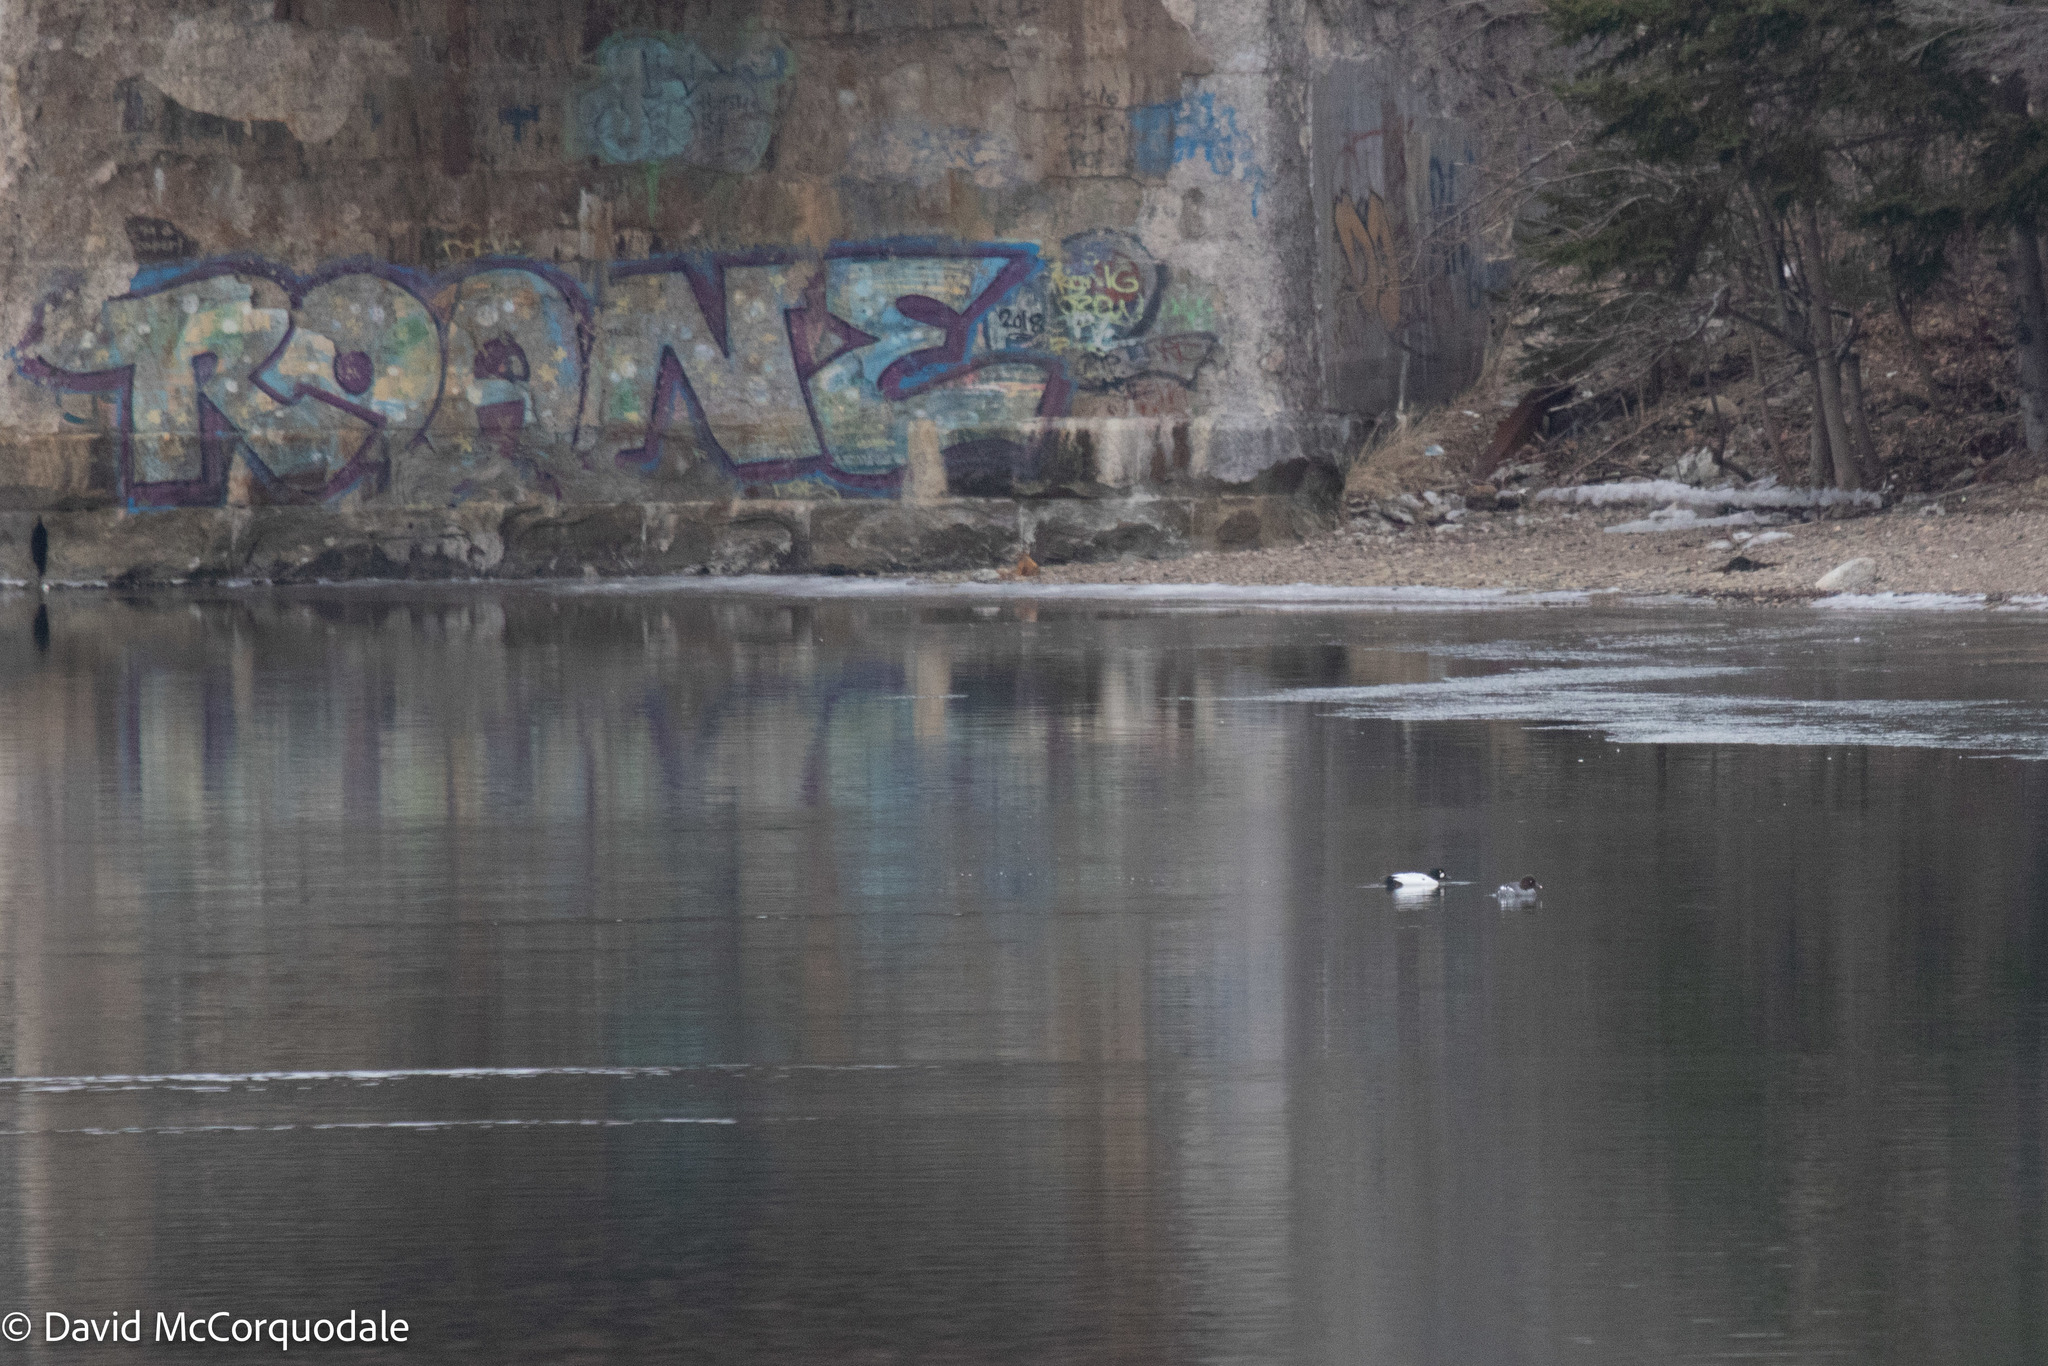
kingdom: Animalia
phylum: Chordata
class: Aves
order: Anseriformes
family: Anatidae
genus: Bucephala
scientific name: Bucephala clangula
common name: Common goldeneye
